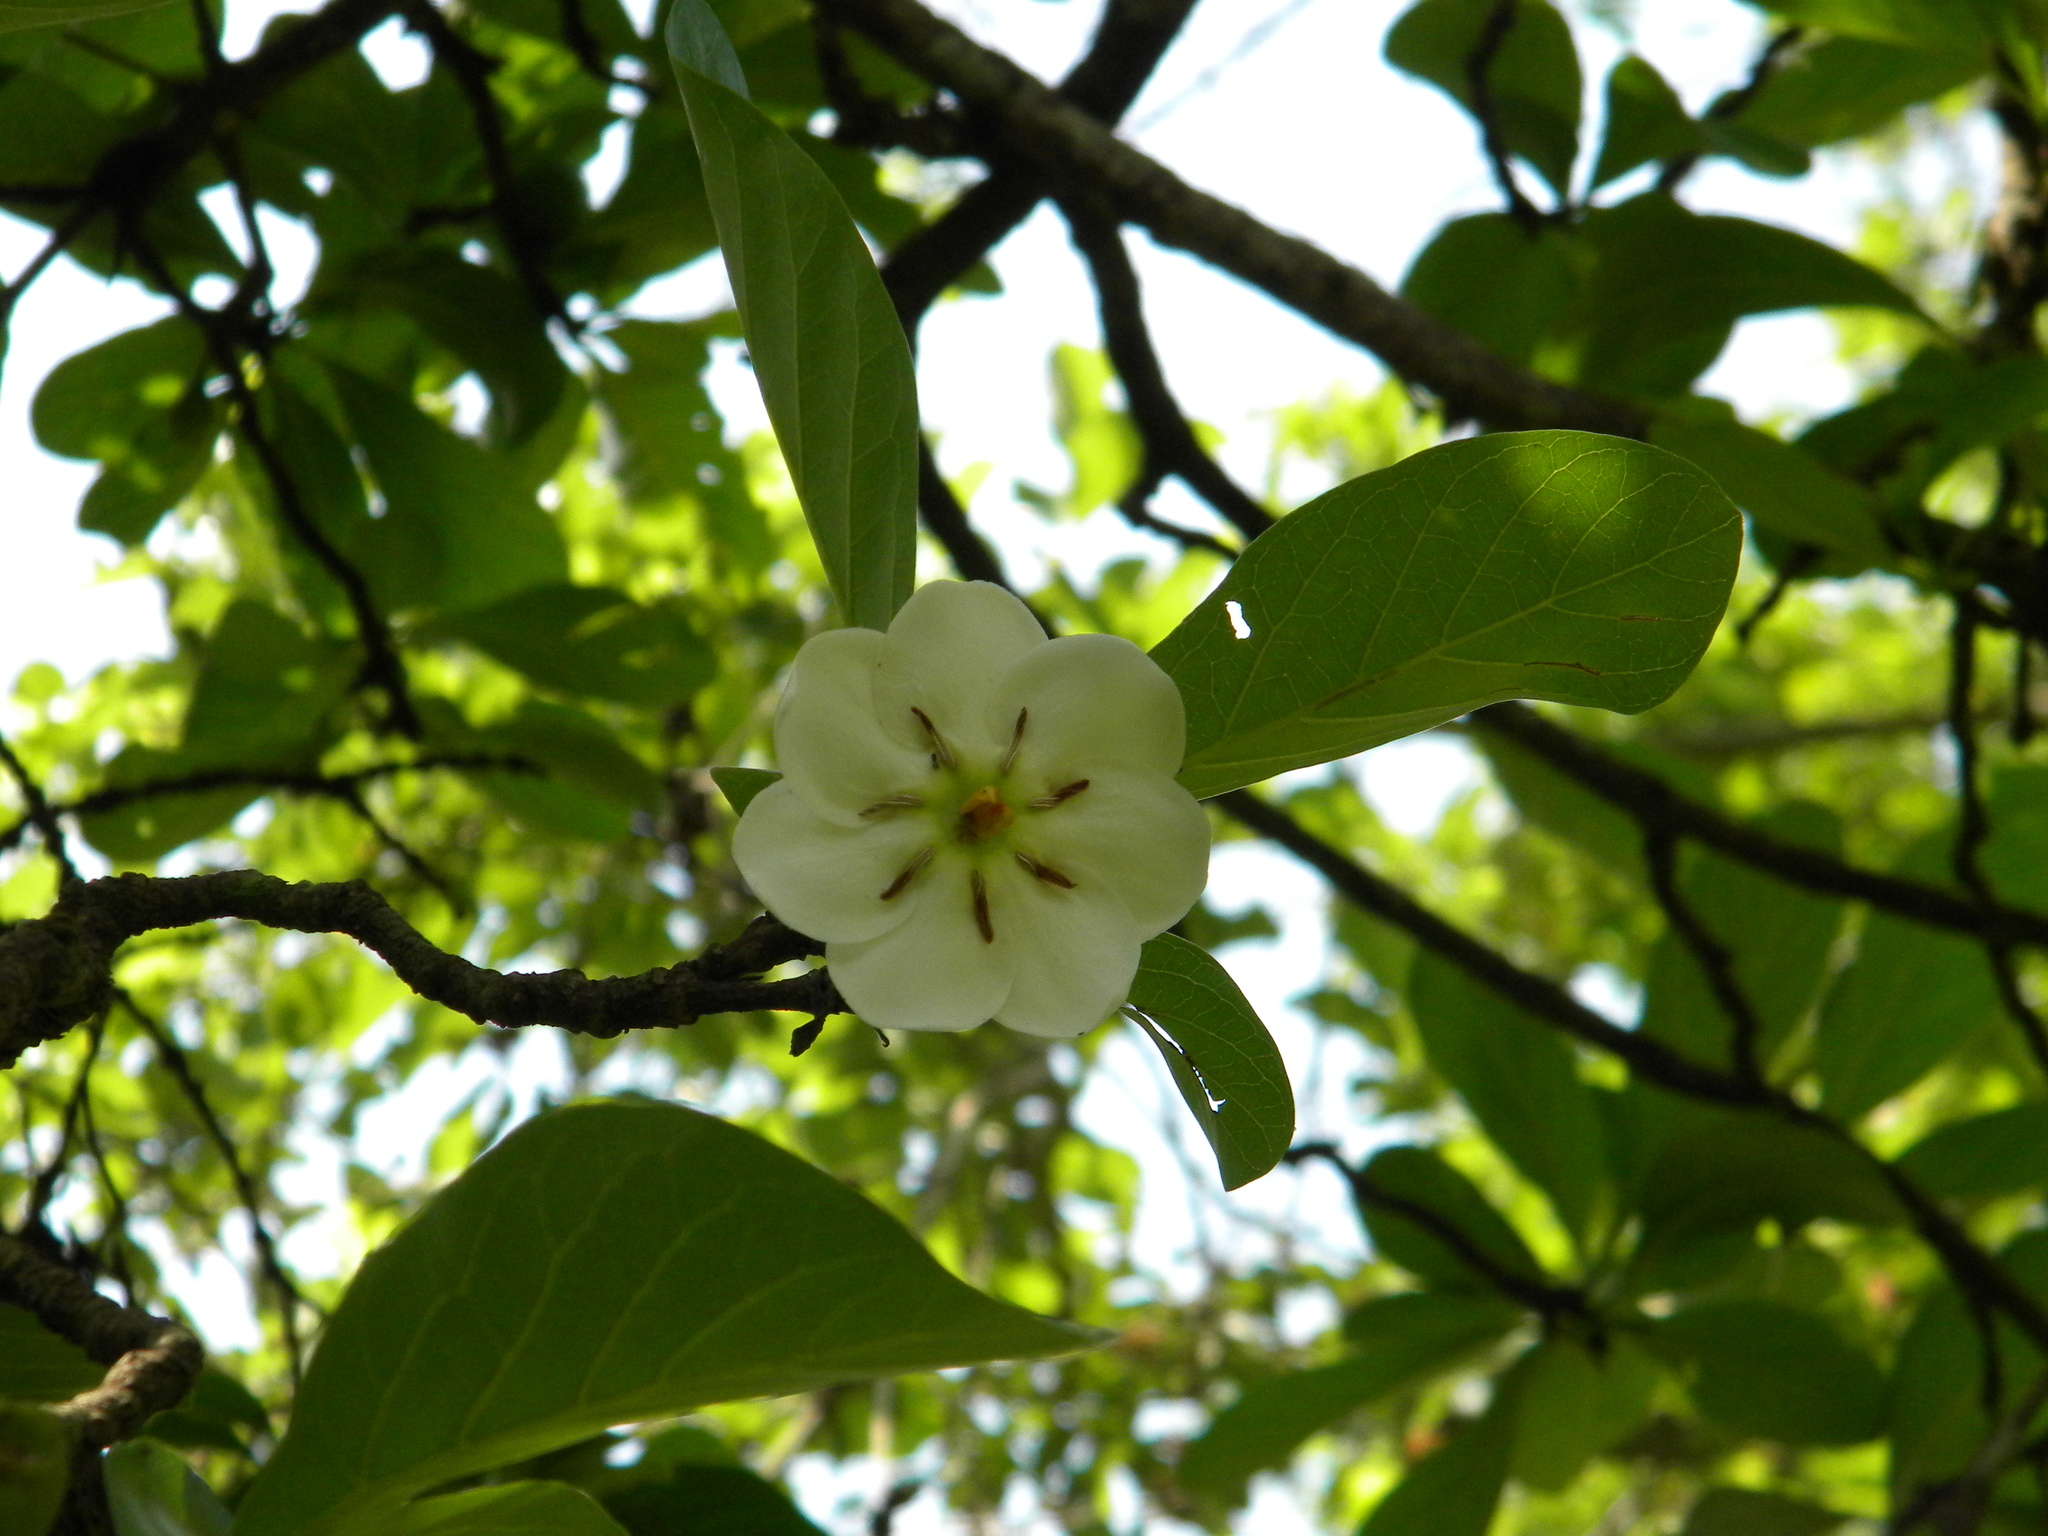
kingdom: Plantae
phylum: Tracheophyta
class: Magnoliopsida
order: Gentianales
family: Rubiaceae
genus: Tamilnadia
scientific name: Tamilnadia uliginosa
